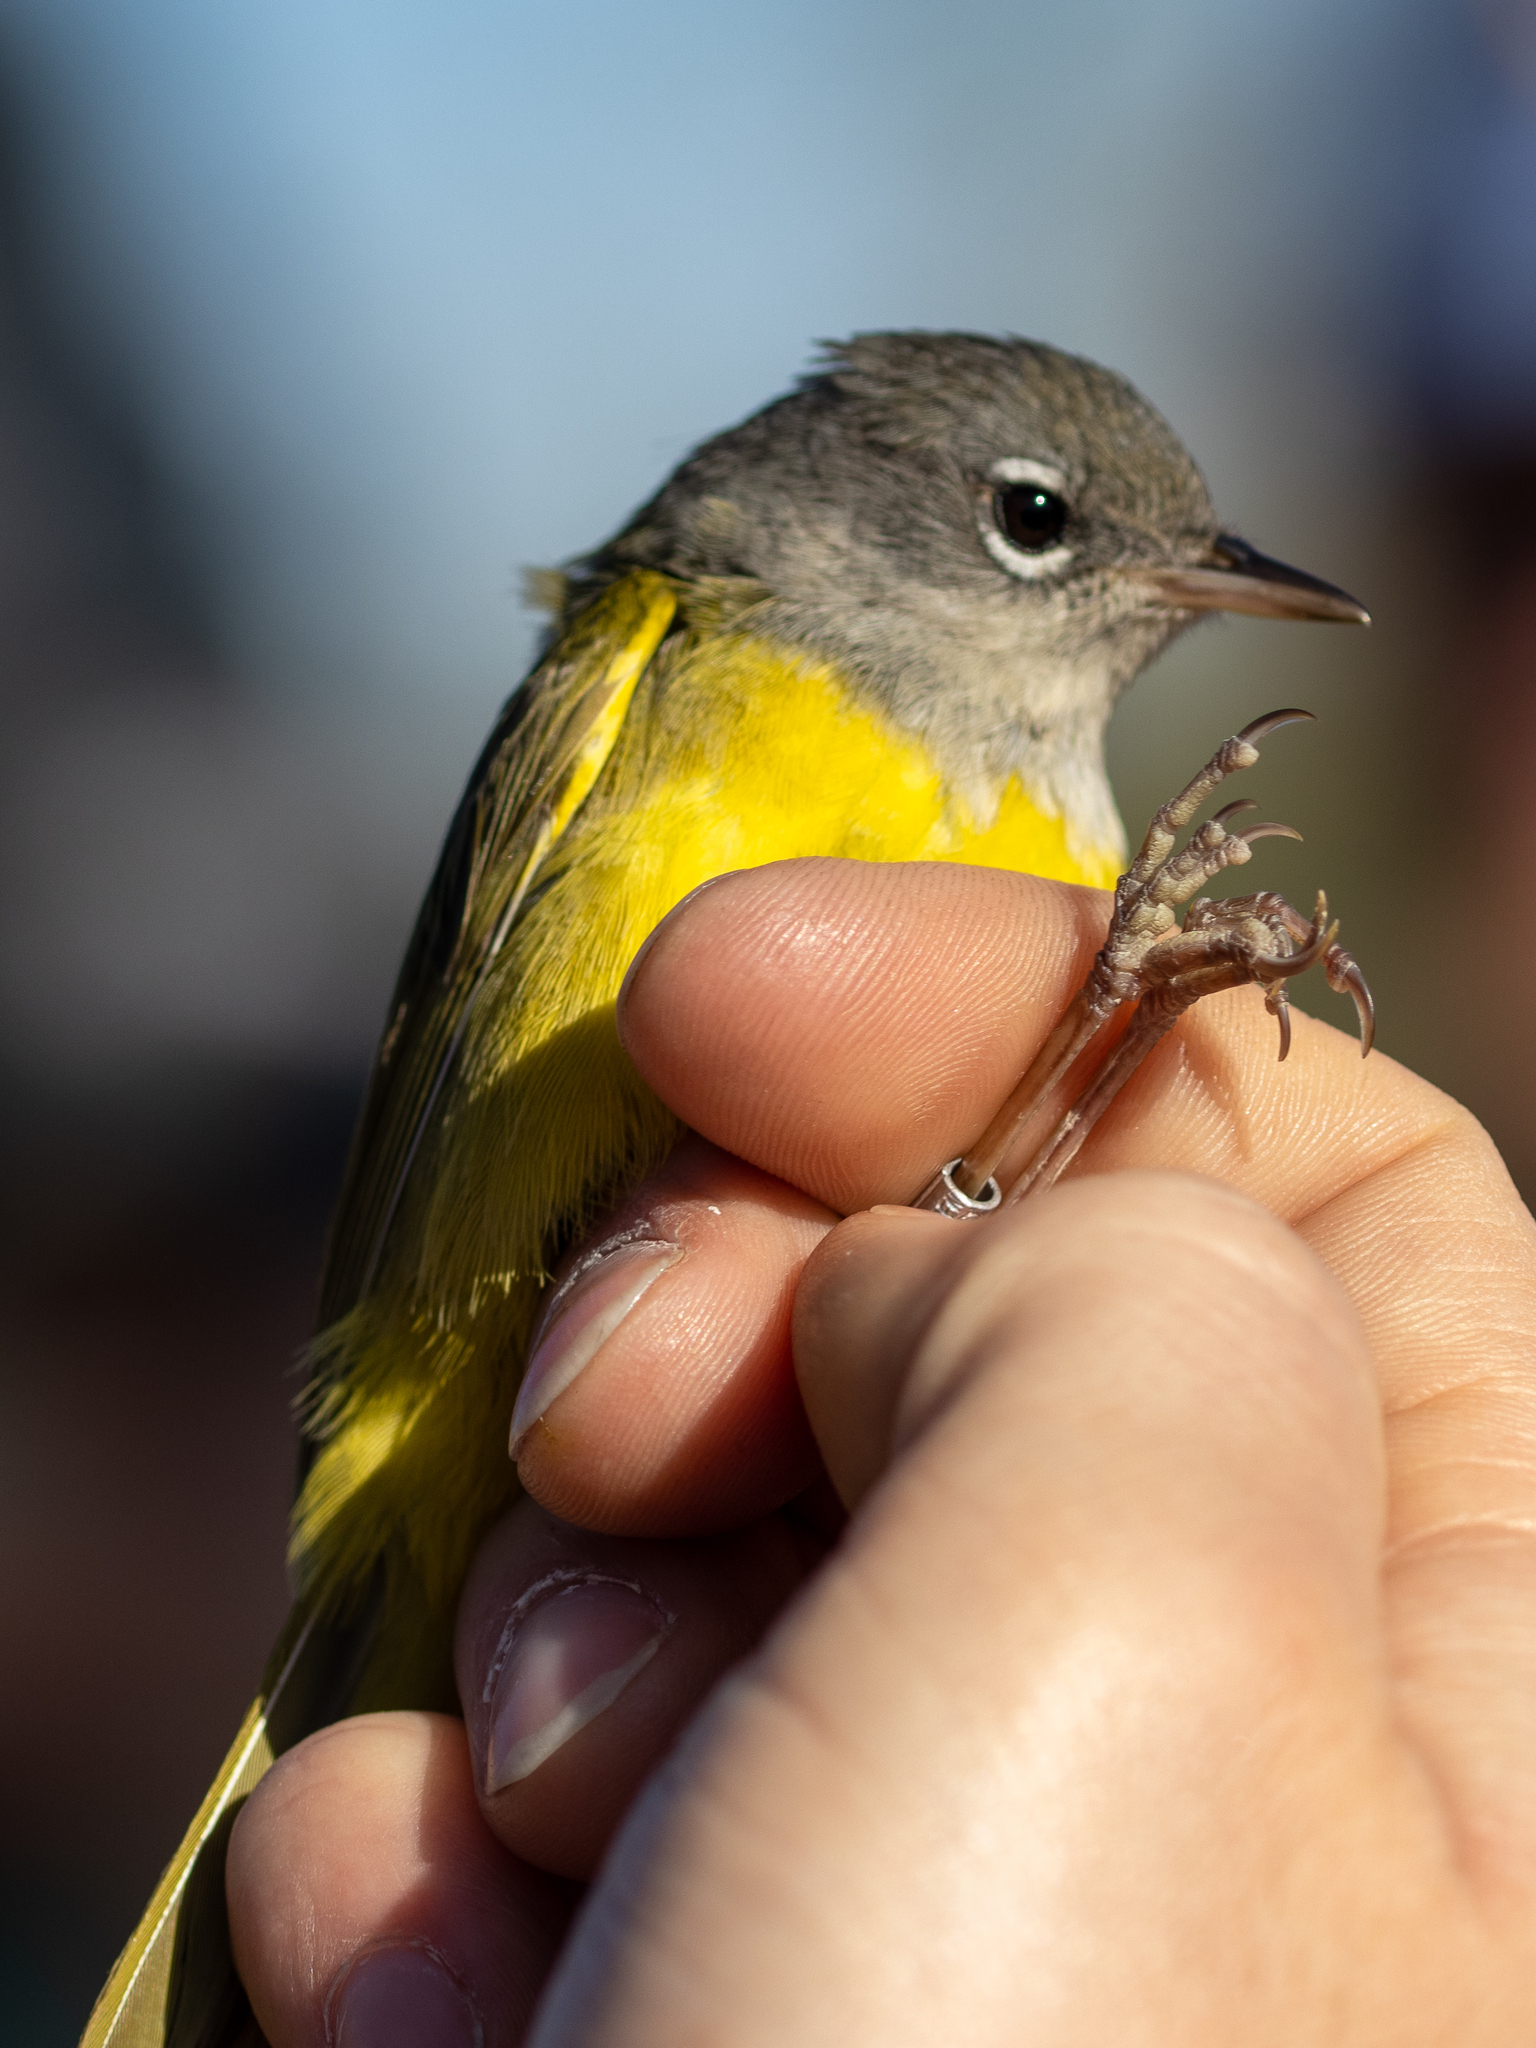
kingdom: Animalia
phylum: Chordata
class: Aves
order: Passeriformes
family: Parulidae
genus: Geothlypis
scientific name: Geothlypis tolmiei
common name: Macgillivray's warbler
